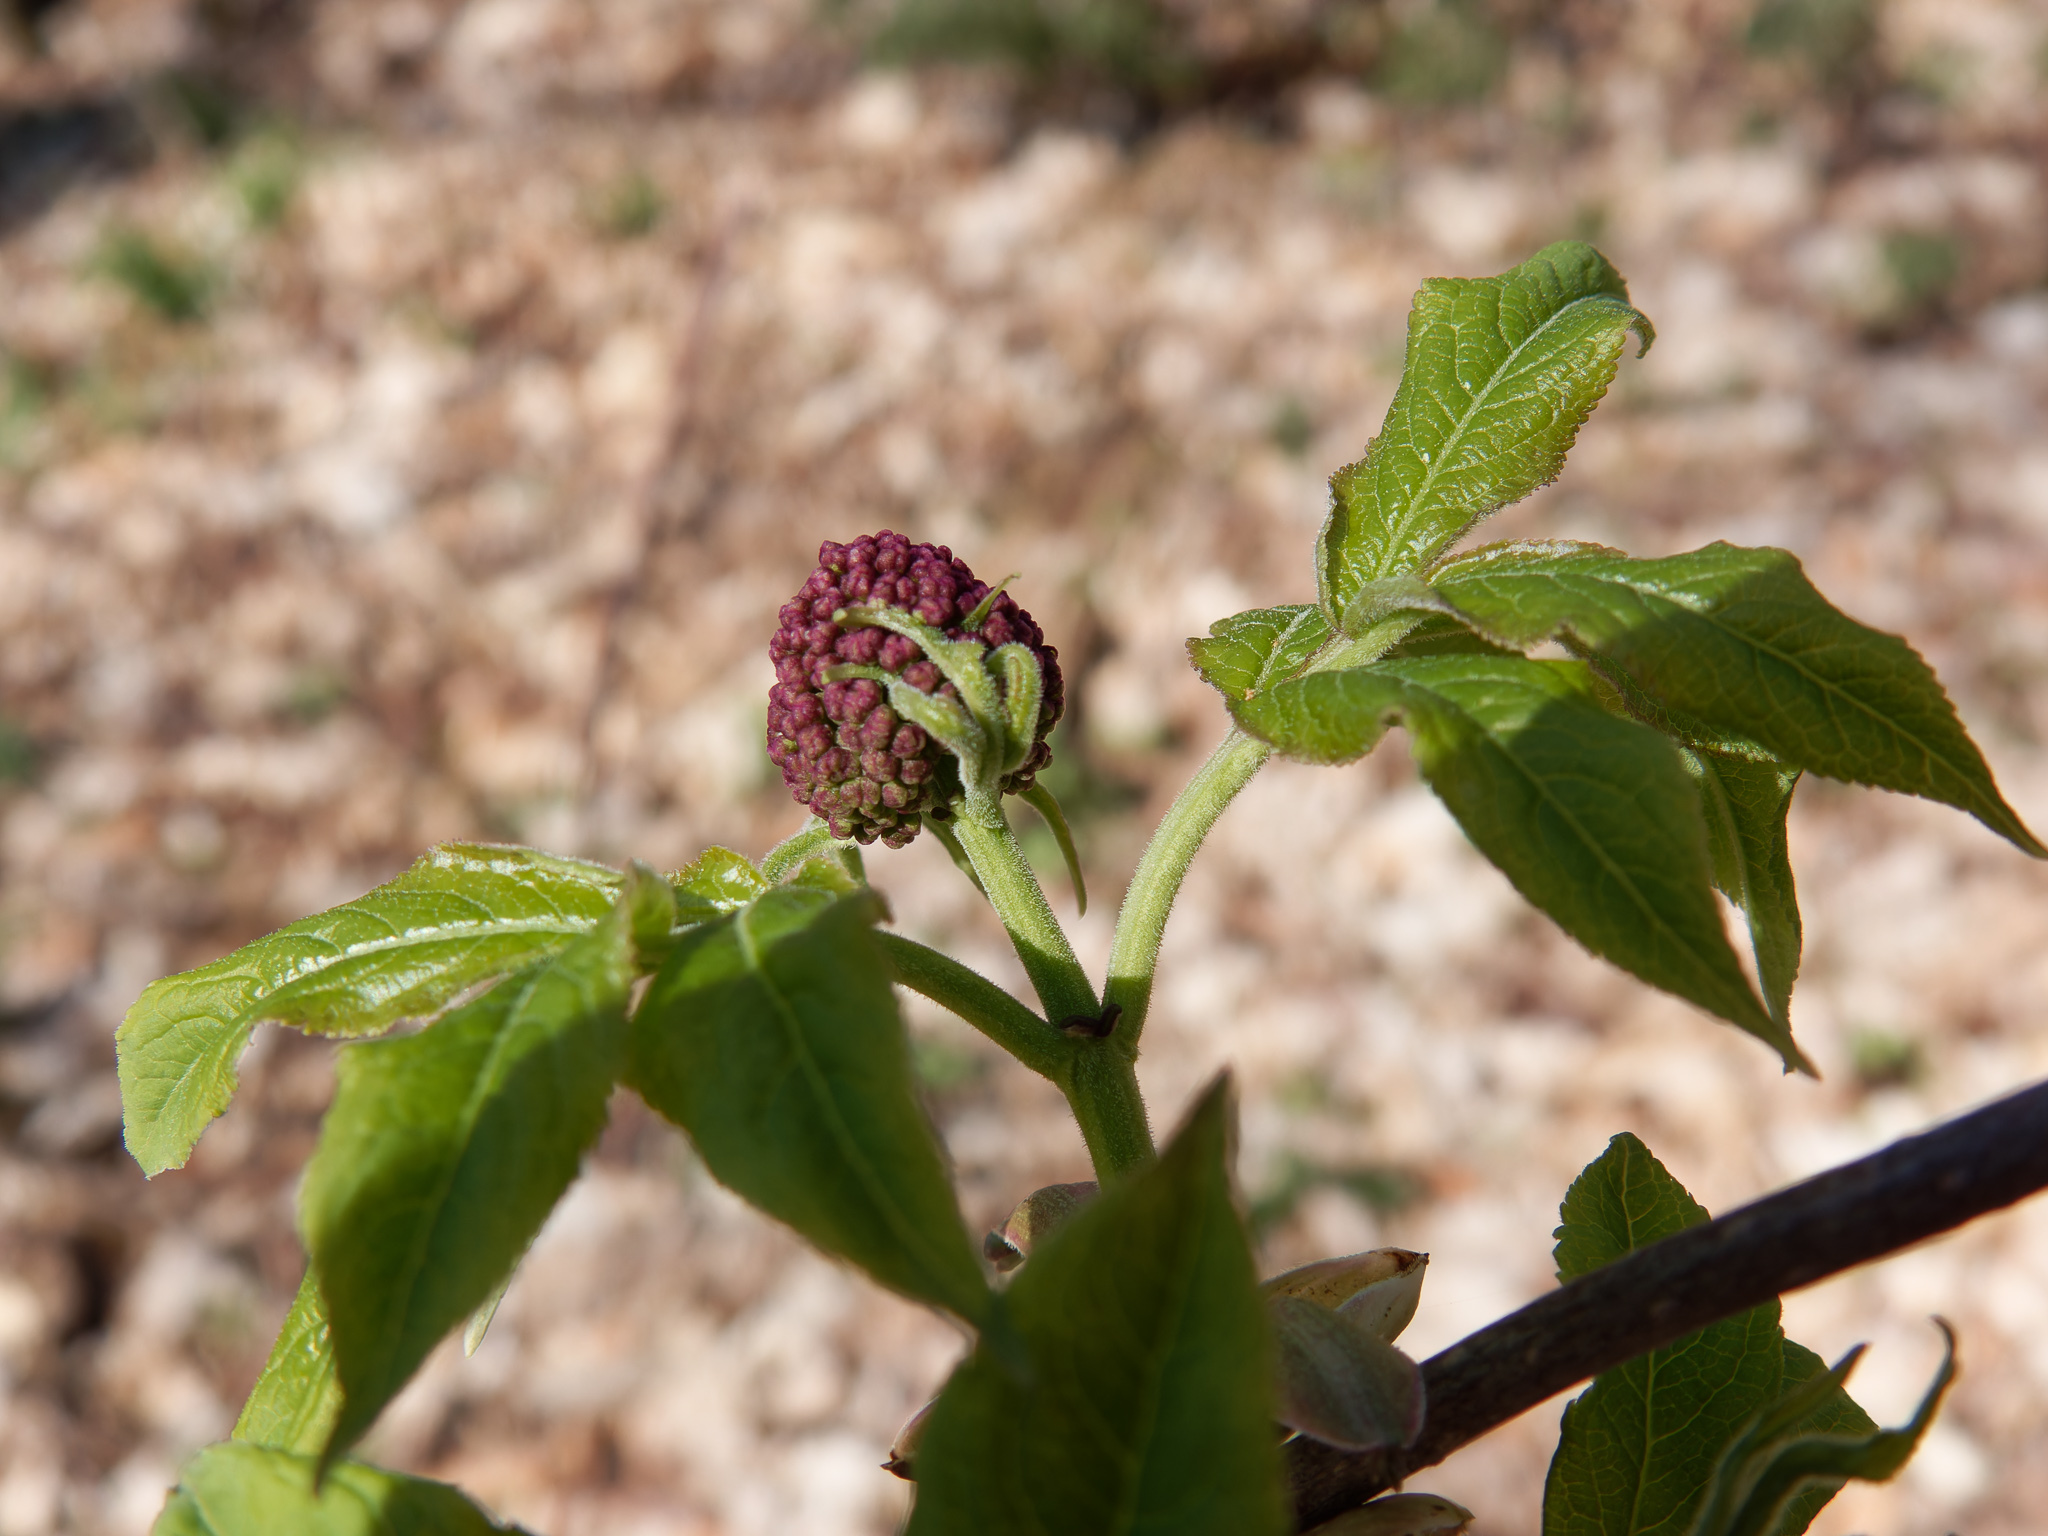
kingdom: Plantae
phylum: Tracheophyta
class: Magnoliopsida
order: Dipsacales
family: Viburnaceae
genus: Sambucus
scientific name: Sambucus racemosa
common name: Red-berried elder
